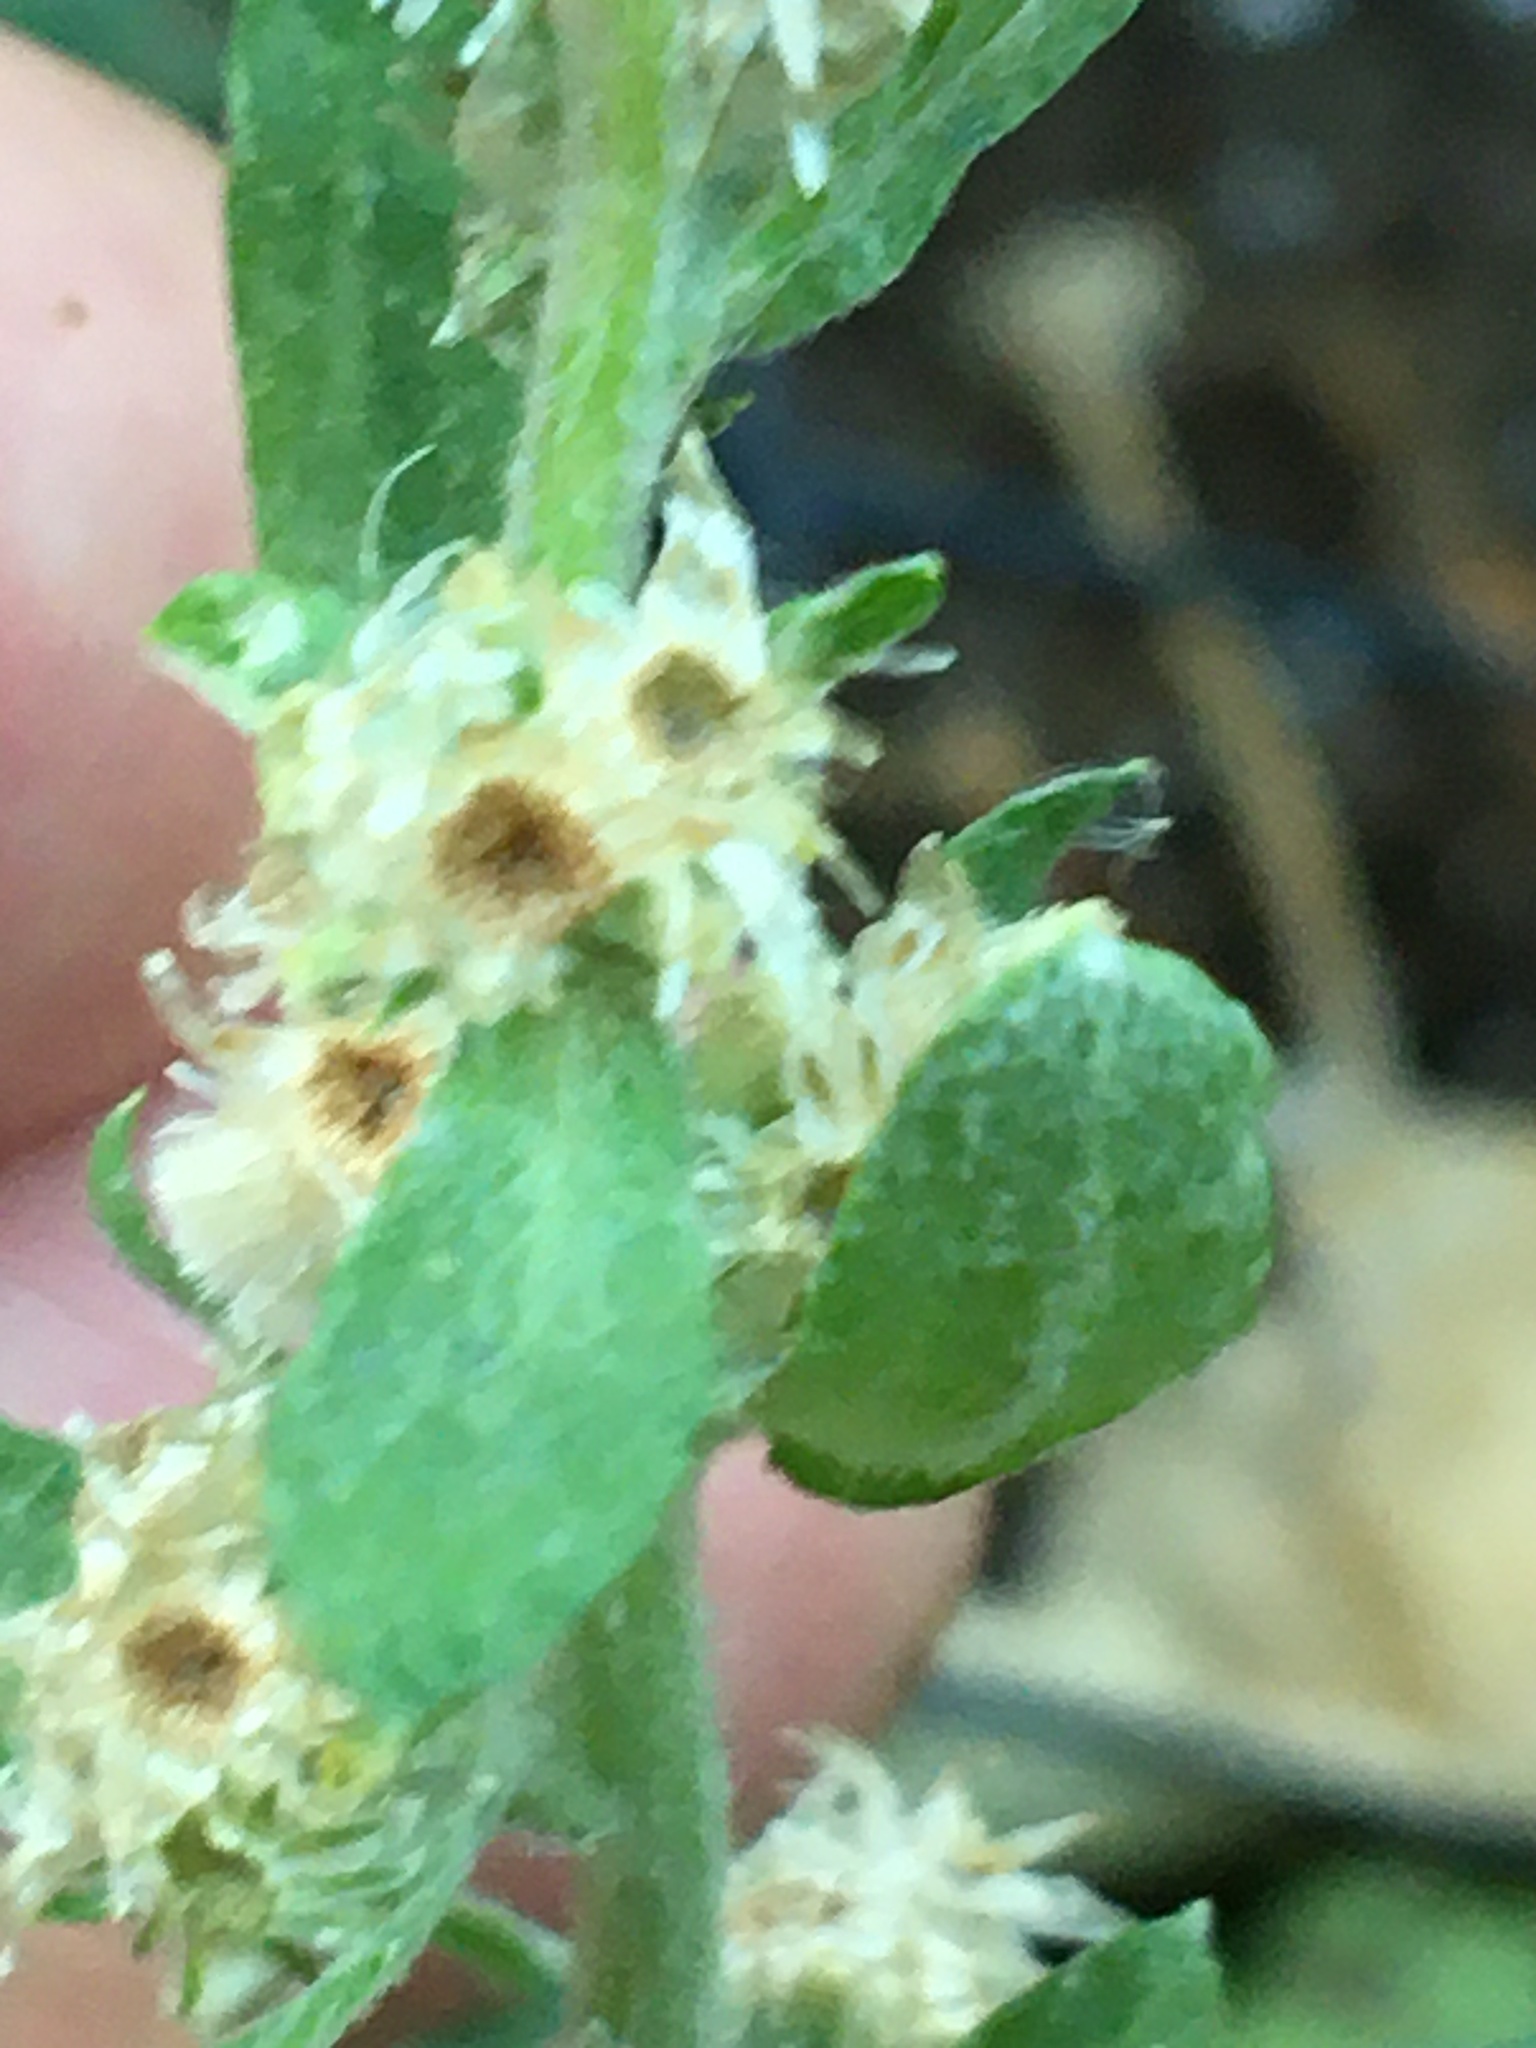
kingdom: Plantae
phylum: Tracheophyta
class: Magnoliopsida
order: Asterales
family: Asteraceae
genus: Gamochaeta
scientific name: Gamochaeta pensylvanica
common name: Pennsylvania everlasting
